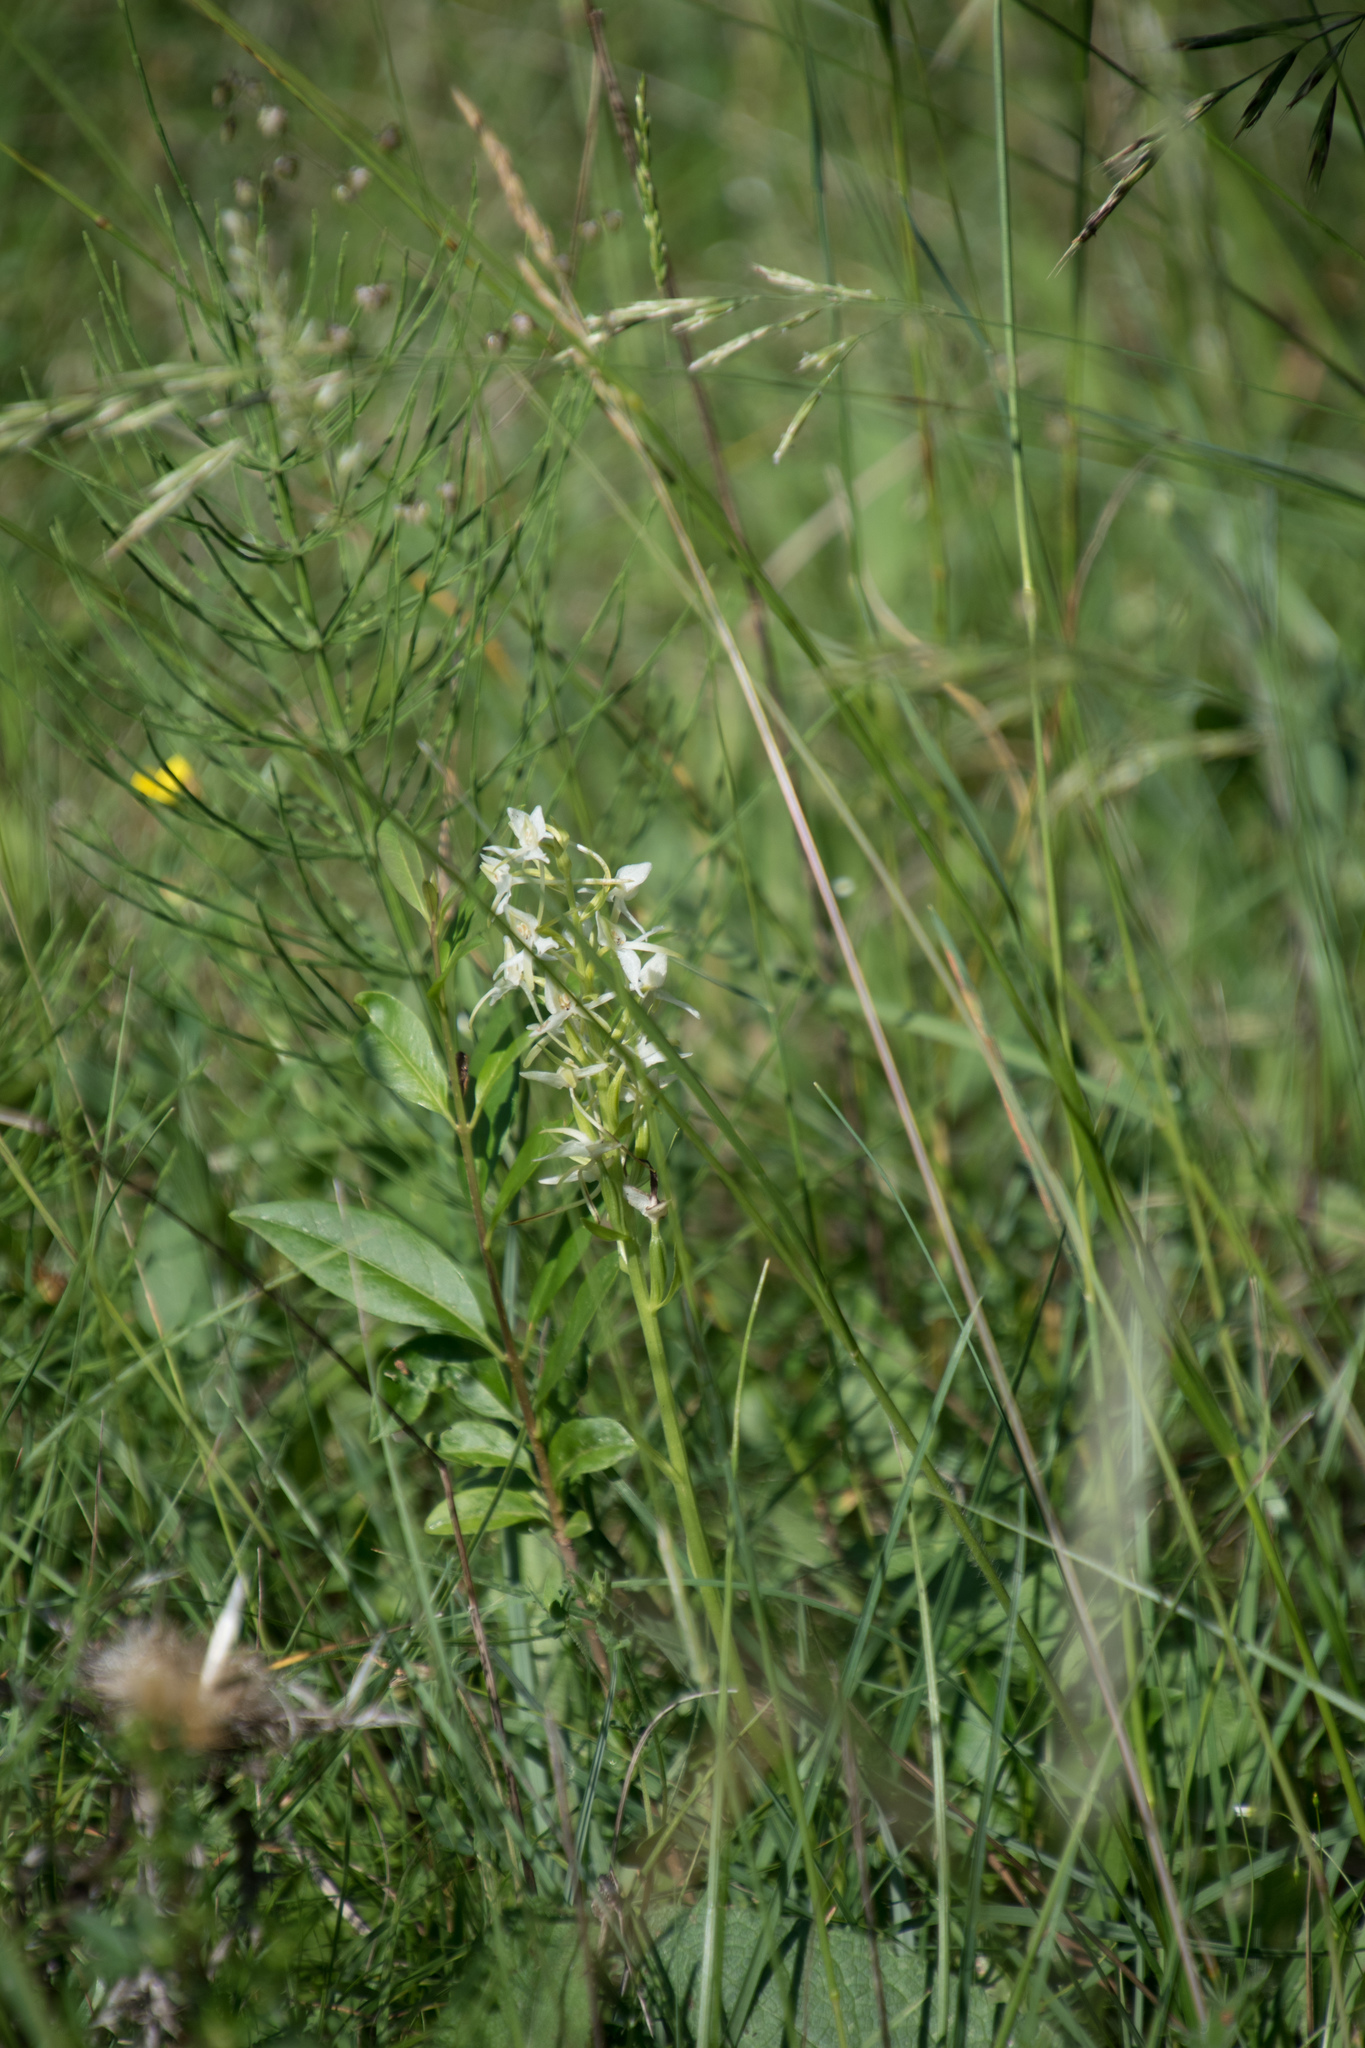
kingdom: Plantae
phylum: Tracheophyta
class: Liliopsida
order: Asparagales
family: Orchidaceae
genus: Platanthera
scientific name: Platanthera bifolia
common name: Lesser butterfly-orchid
